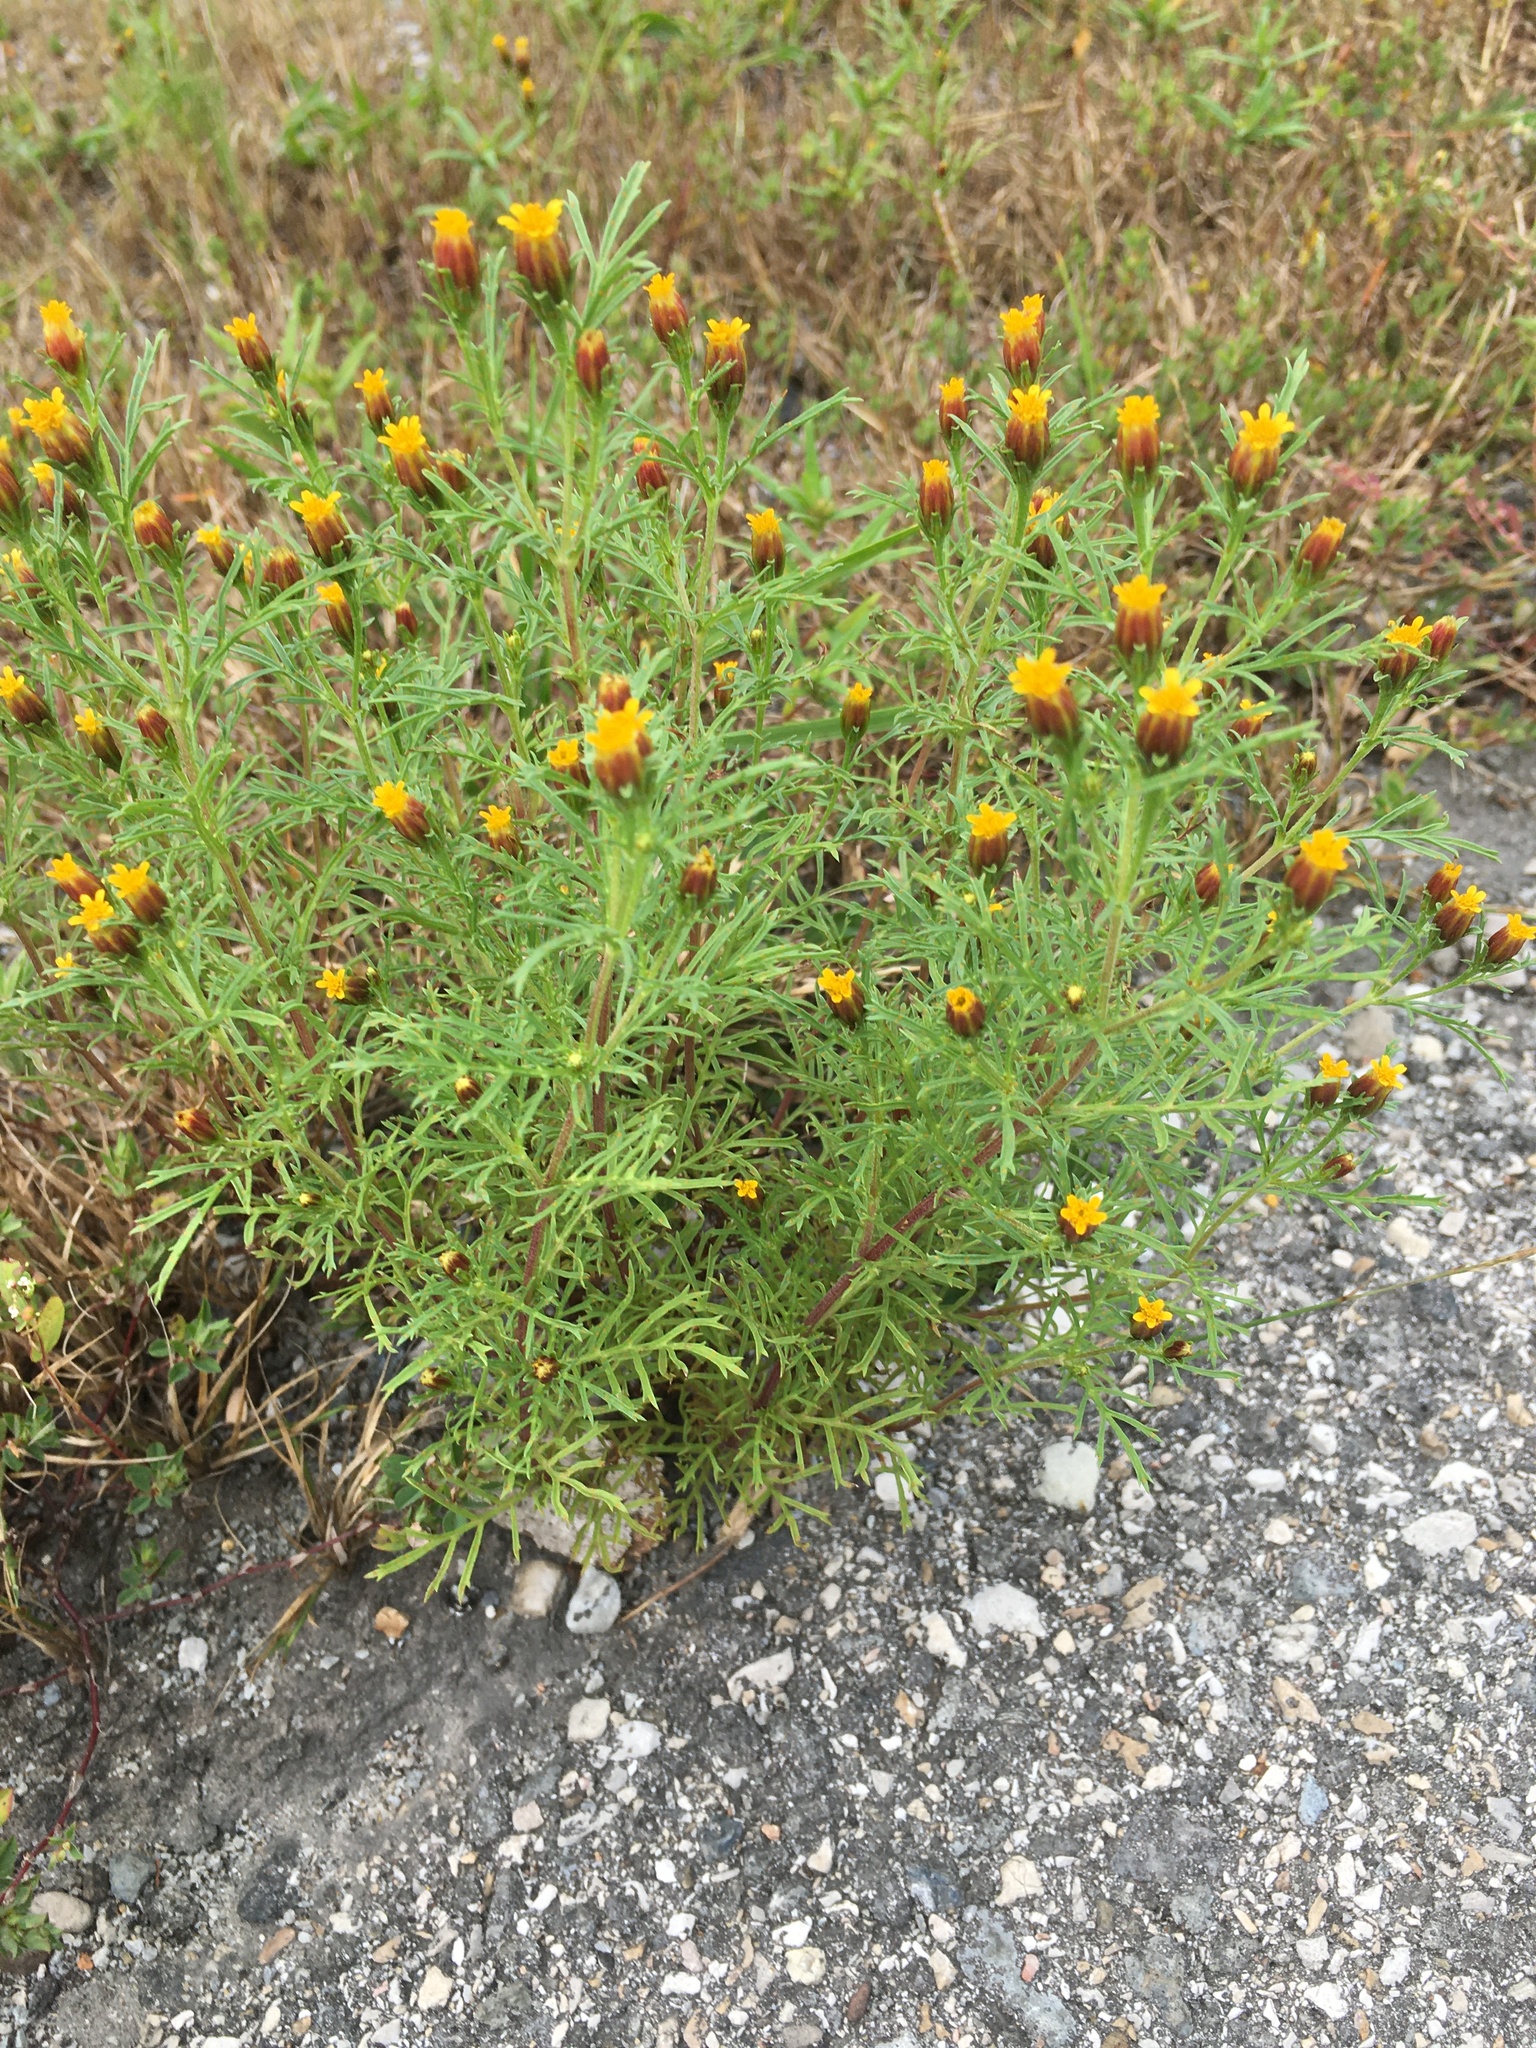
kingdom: Plantae
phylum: Tracheophyta
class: Magnoliopsida
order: Asterales
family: Asteraceae
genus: Dyssodia
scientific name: Dyssodia papposa
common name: Dogweed
